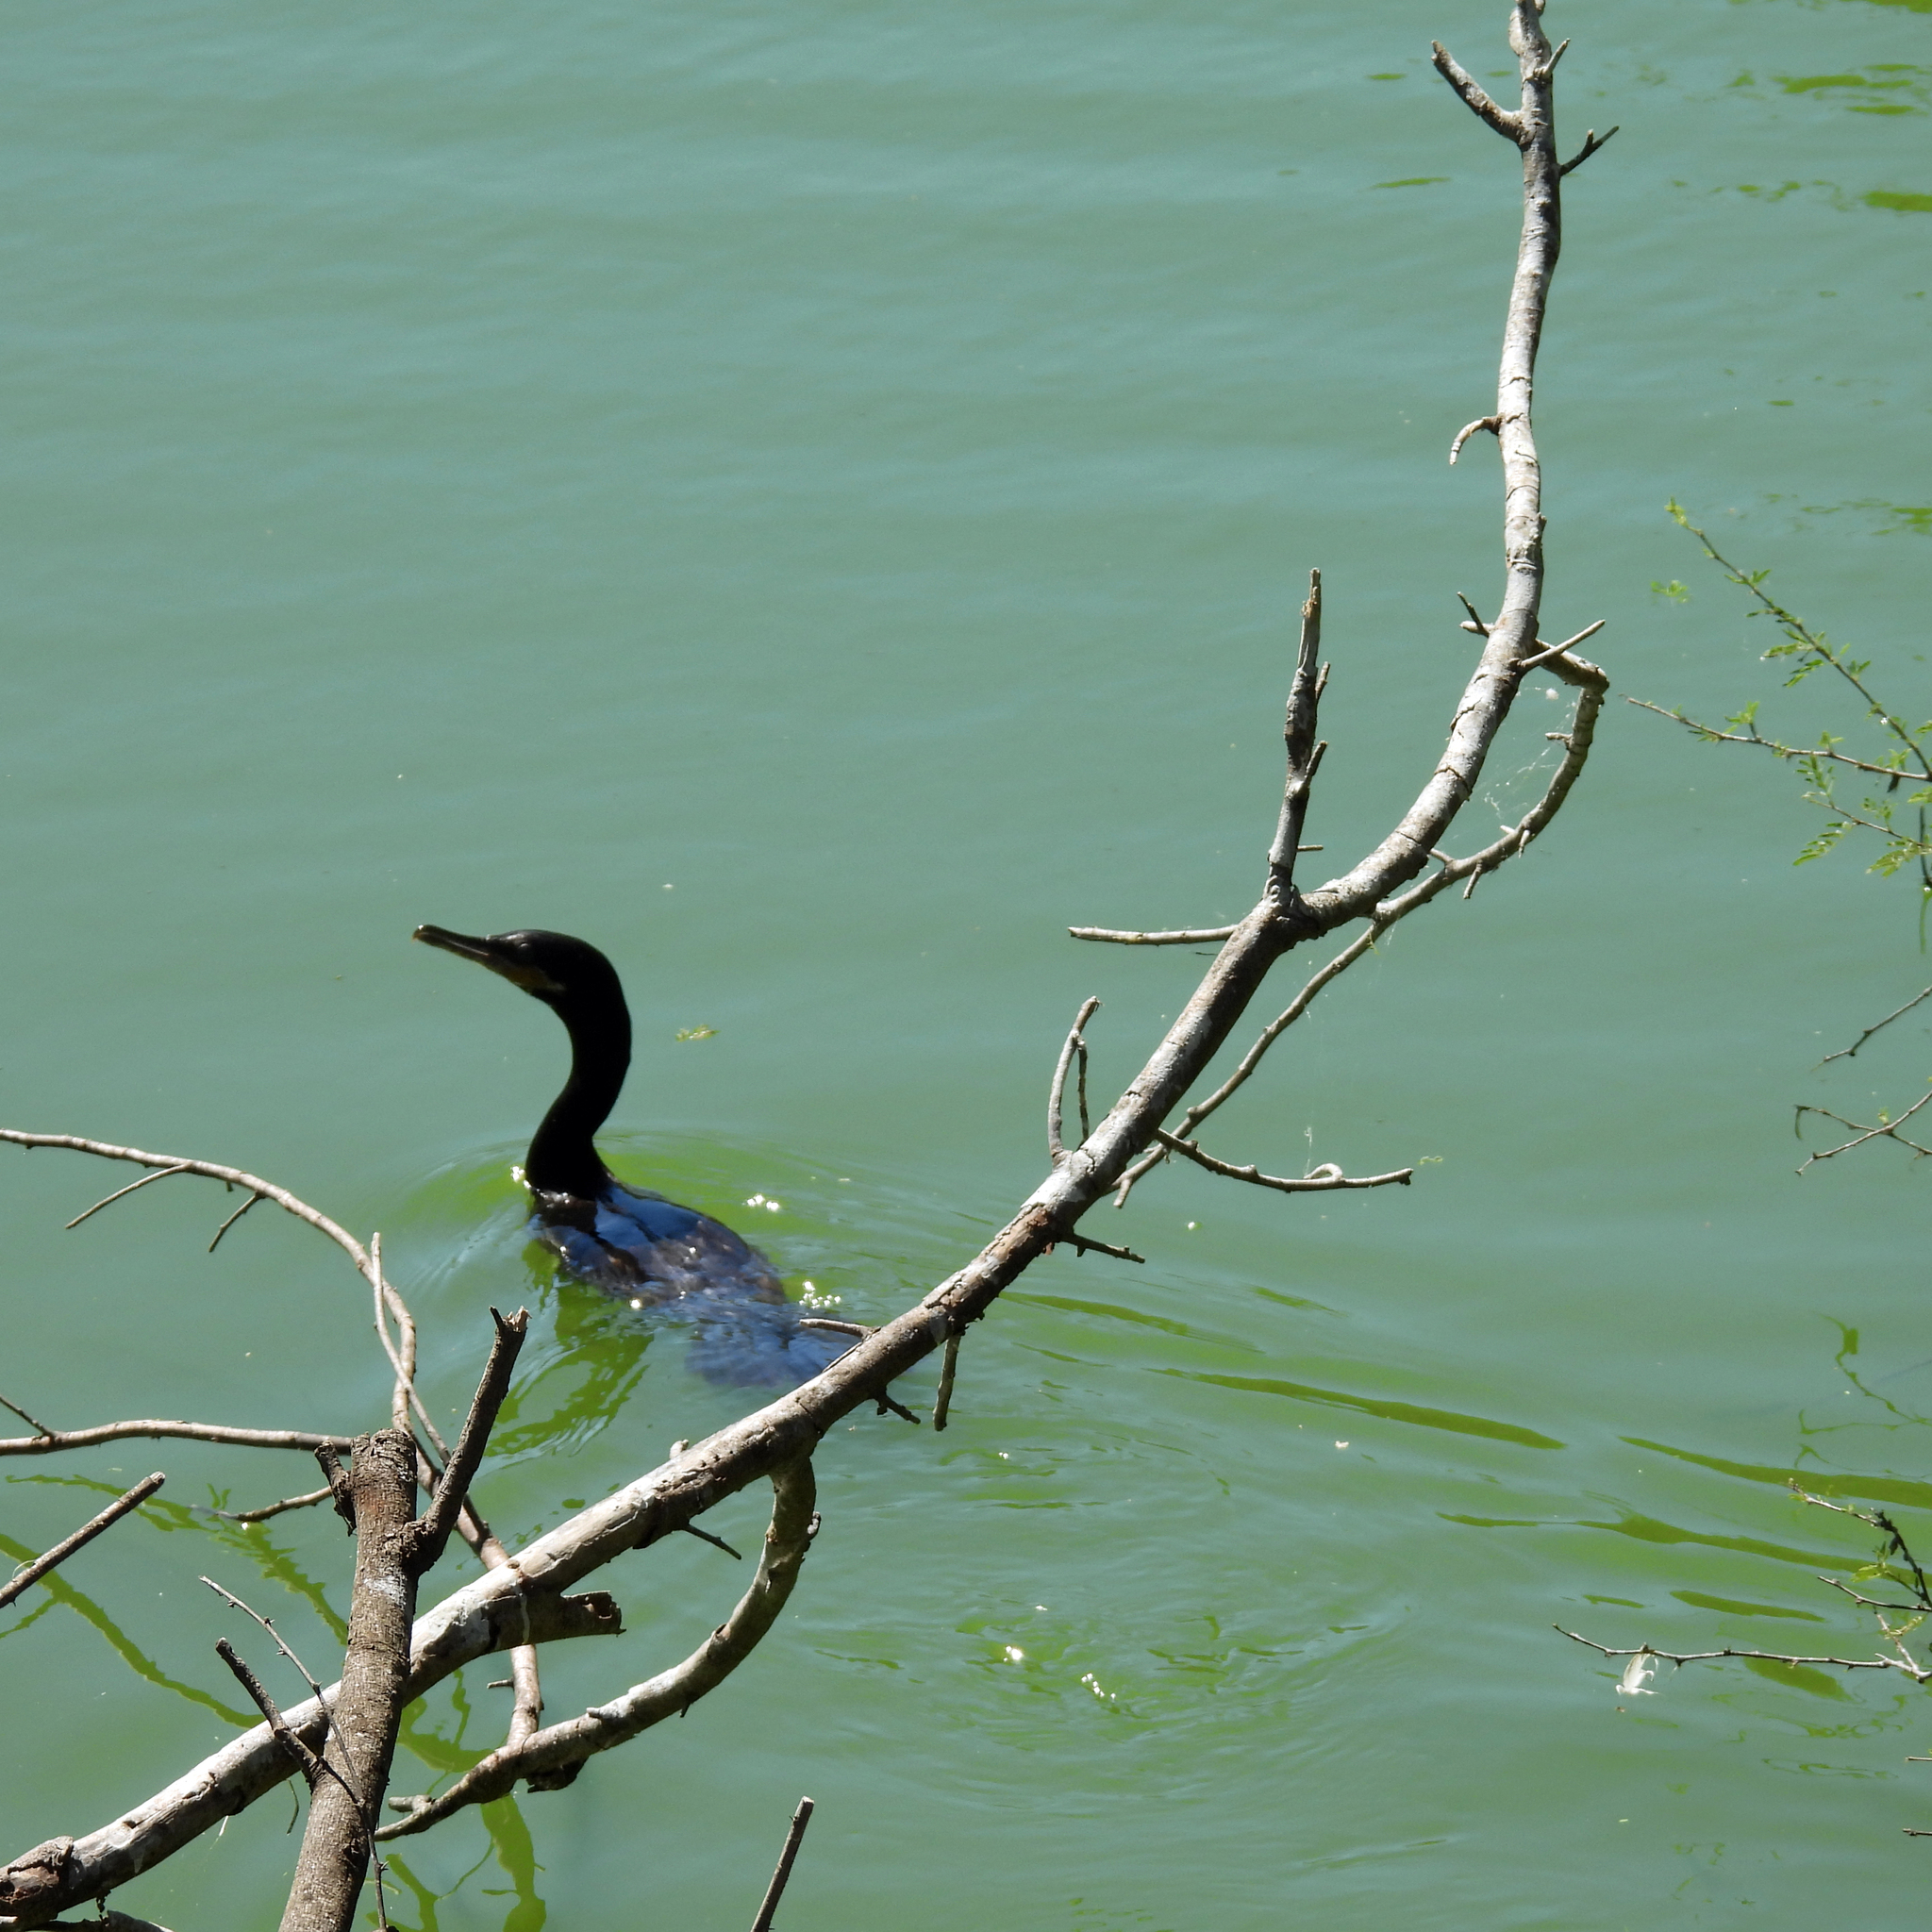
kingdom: Animalia
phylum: Chordata
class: Aves
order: Suliformes
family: Phalacrocoracidae
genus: Phalacrocorax
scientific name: Phalacrocorax brasilianus
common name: Neotropic cormorant
